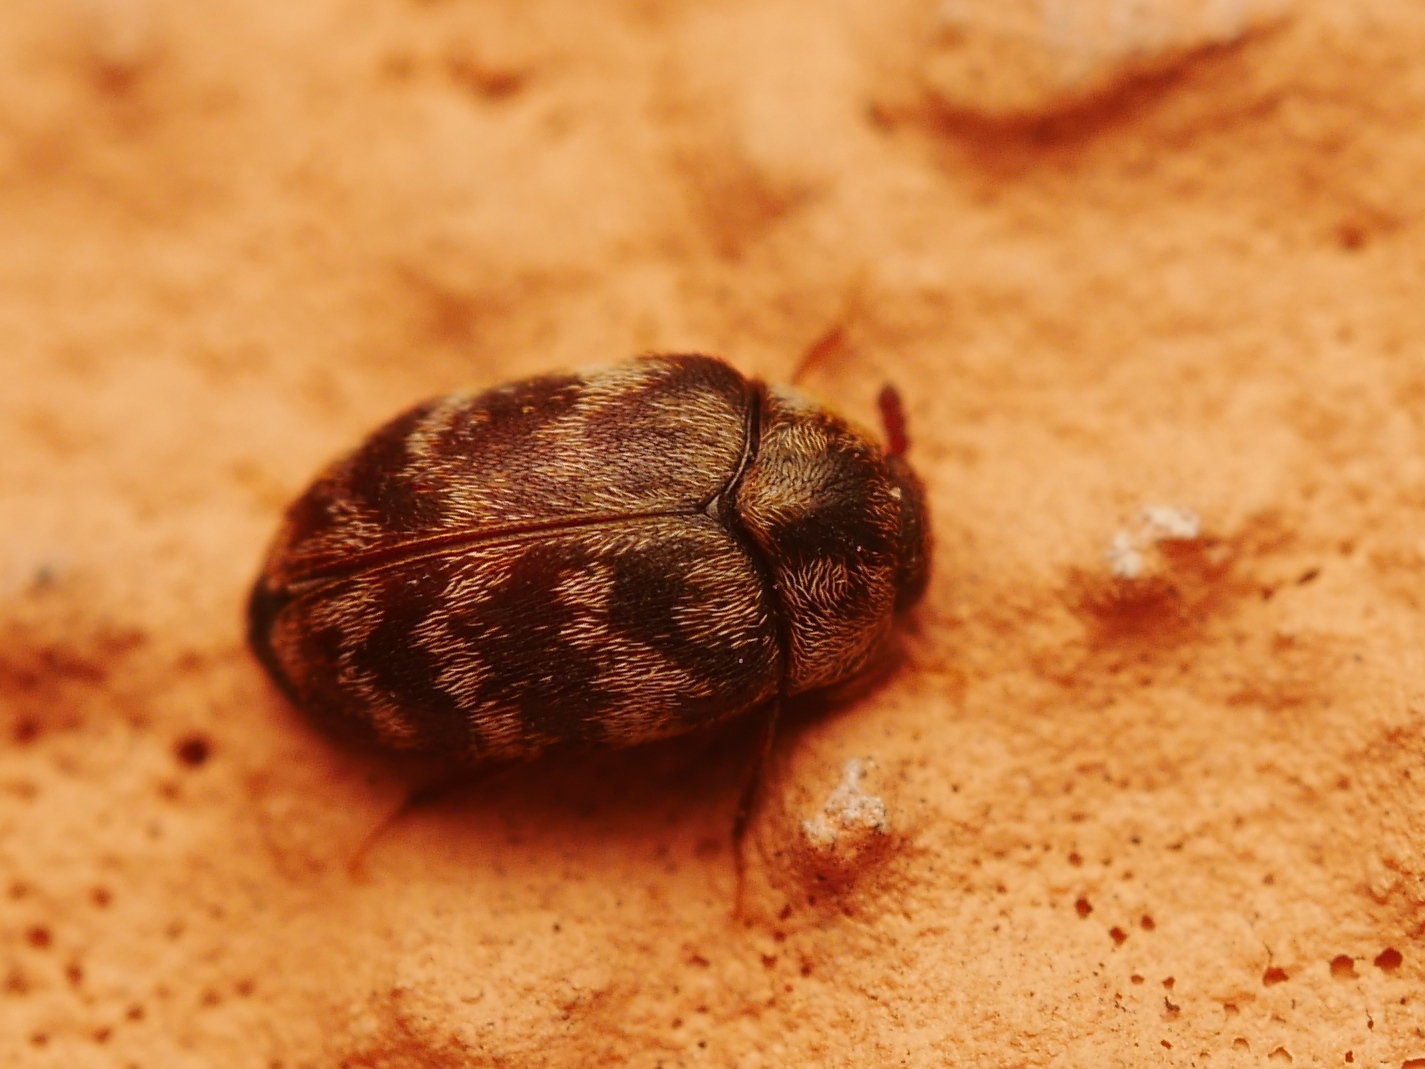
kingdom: Animalia
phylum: Arthropoda
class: Insecta
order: Coleoptera
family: Dermestidae
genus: Anthrenocerus
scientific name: Anthrenocerus australis
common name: Australian carpet beetle
